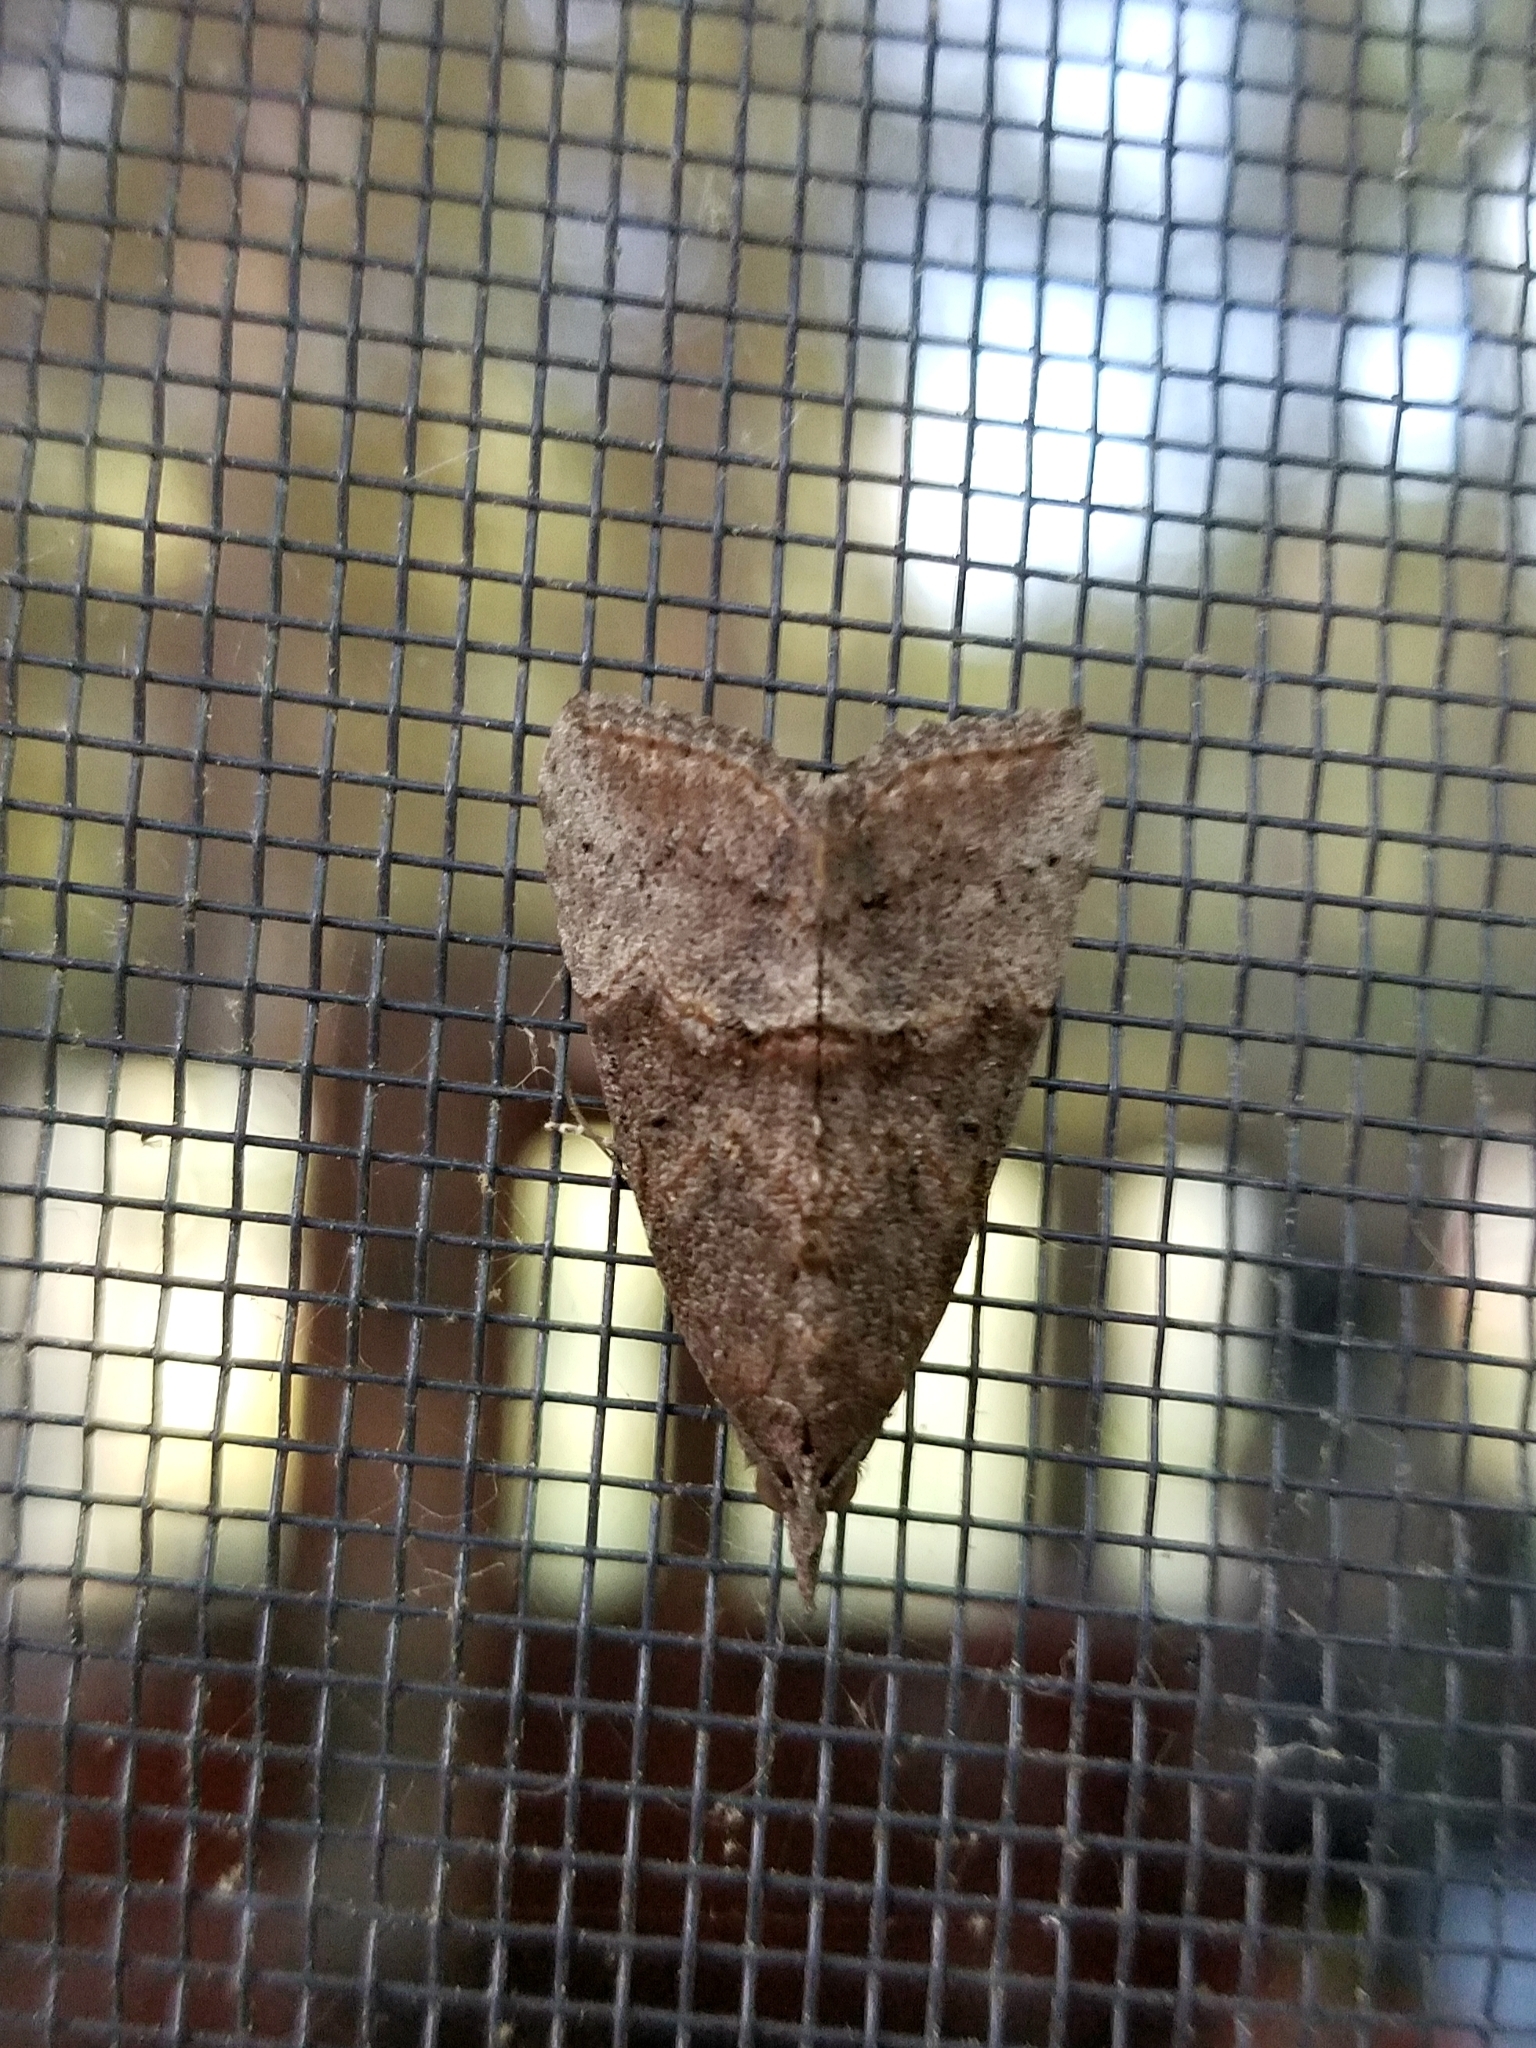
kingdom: Animalia
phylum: Arthropoda
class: Insecta
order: Lepidoptera
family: Erebidae
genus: Hypena
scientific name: Hypena scabra
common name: Green cloverworm
